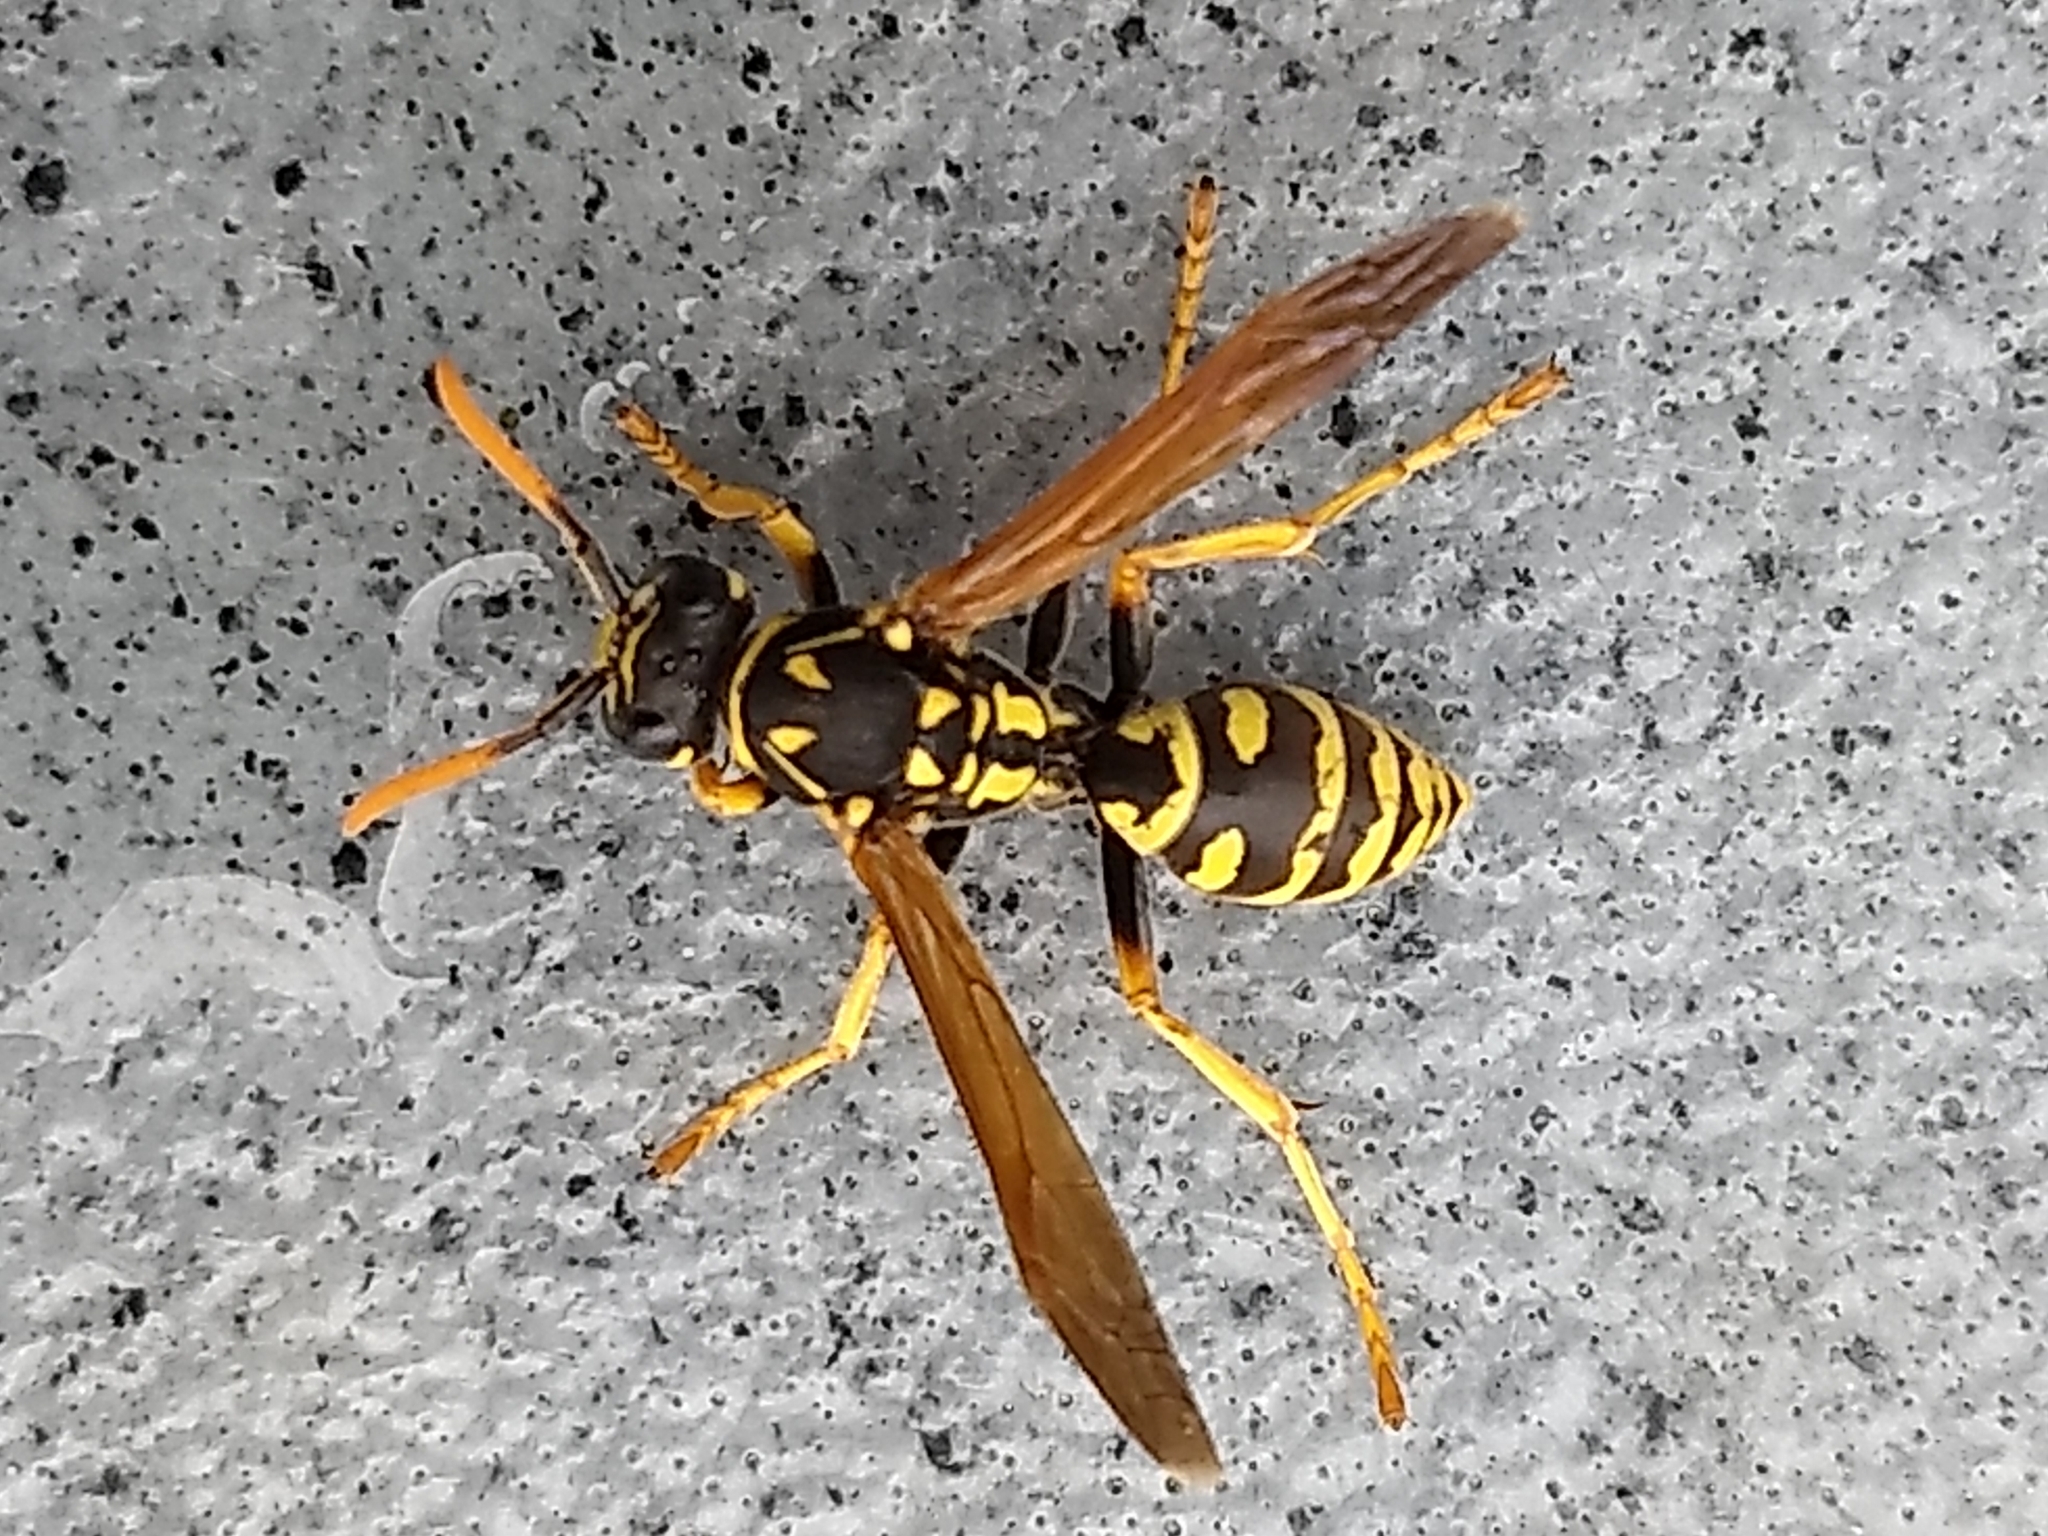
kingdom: Animalia
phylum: Arthropoda
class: Insecta
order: Hymenoptera
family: Eumenidae
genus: Polistes
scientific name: Polistes dominula
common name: Paper wasp
